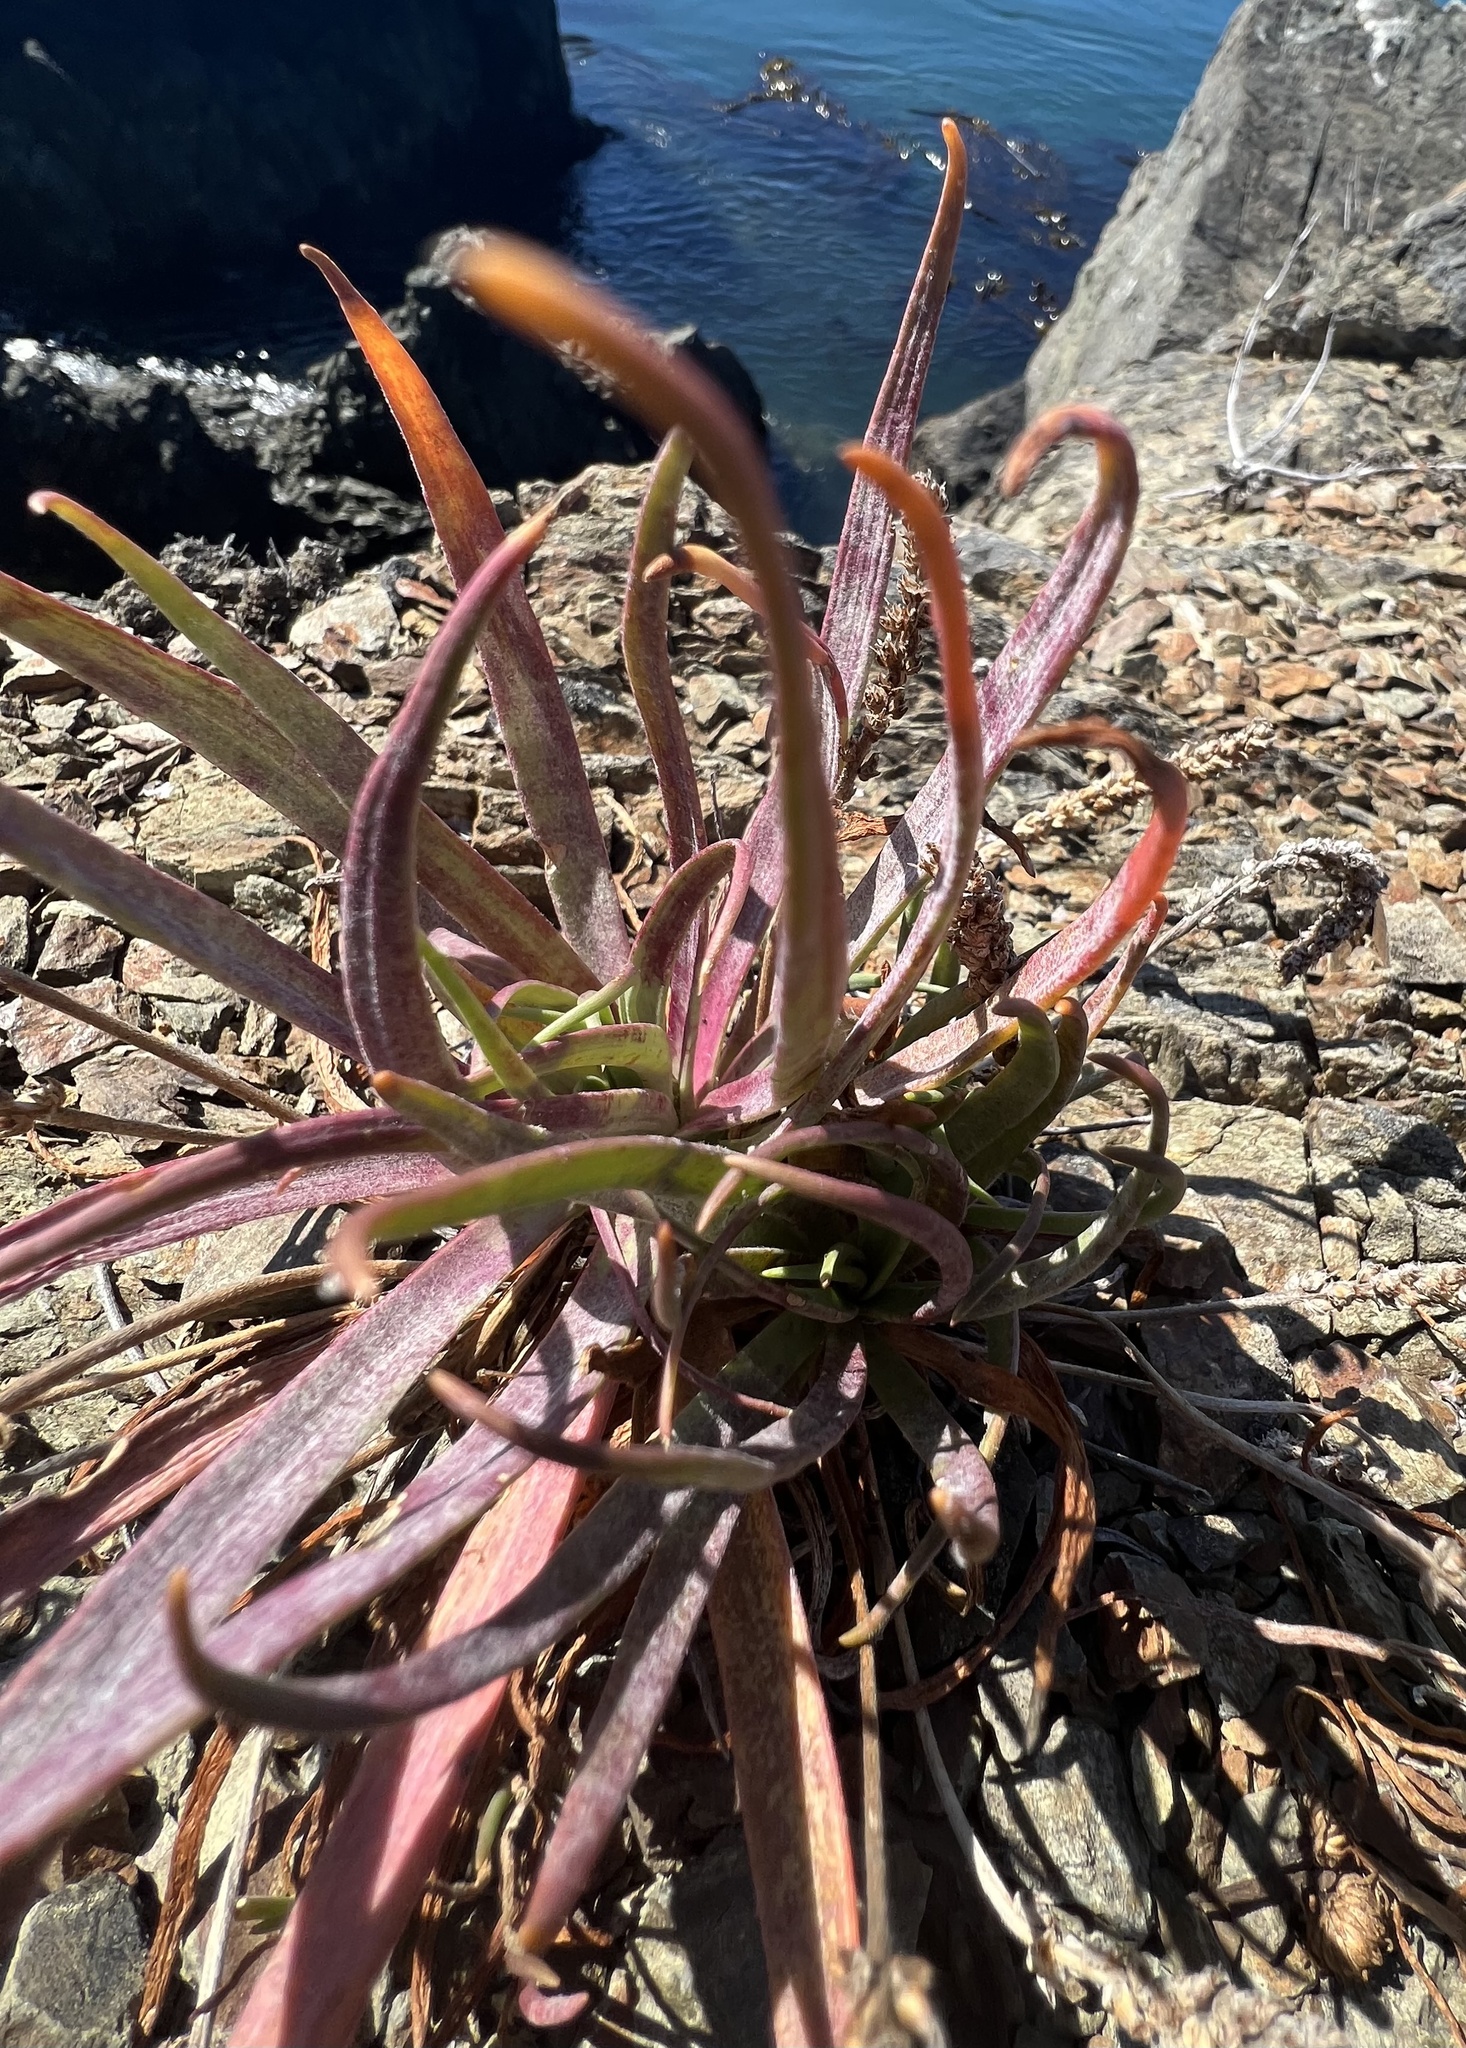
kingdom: Plantae
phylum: Tracheophyta
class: Magnoliopsida
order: Lamiales
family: Plantaginaceae
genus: Plantago
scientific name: Plantago maritima
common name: Sea plantain
